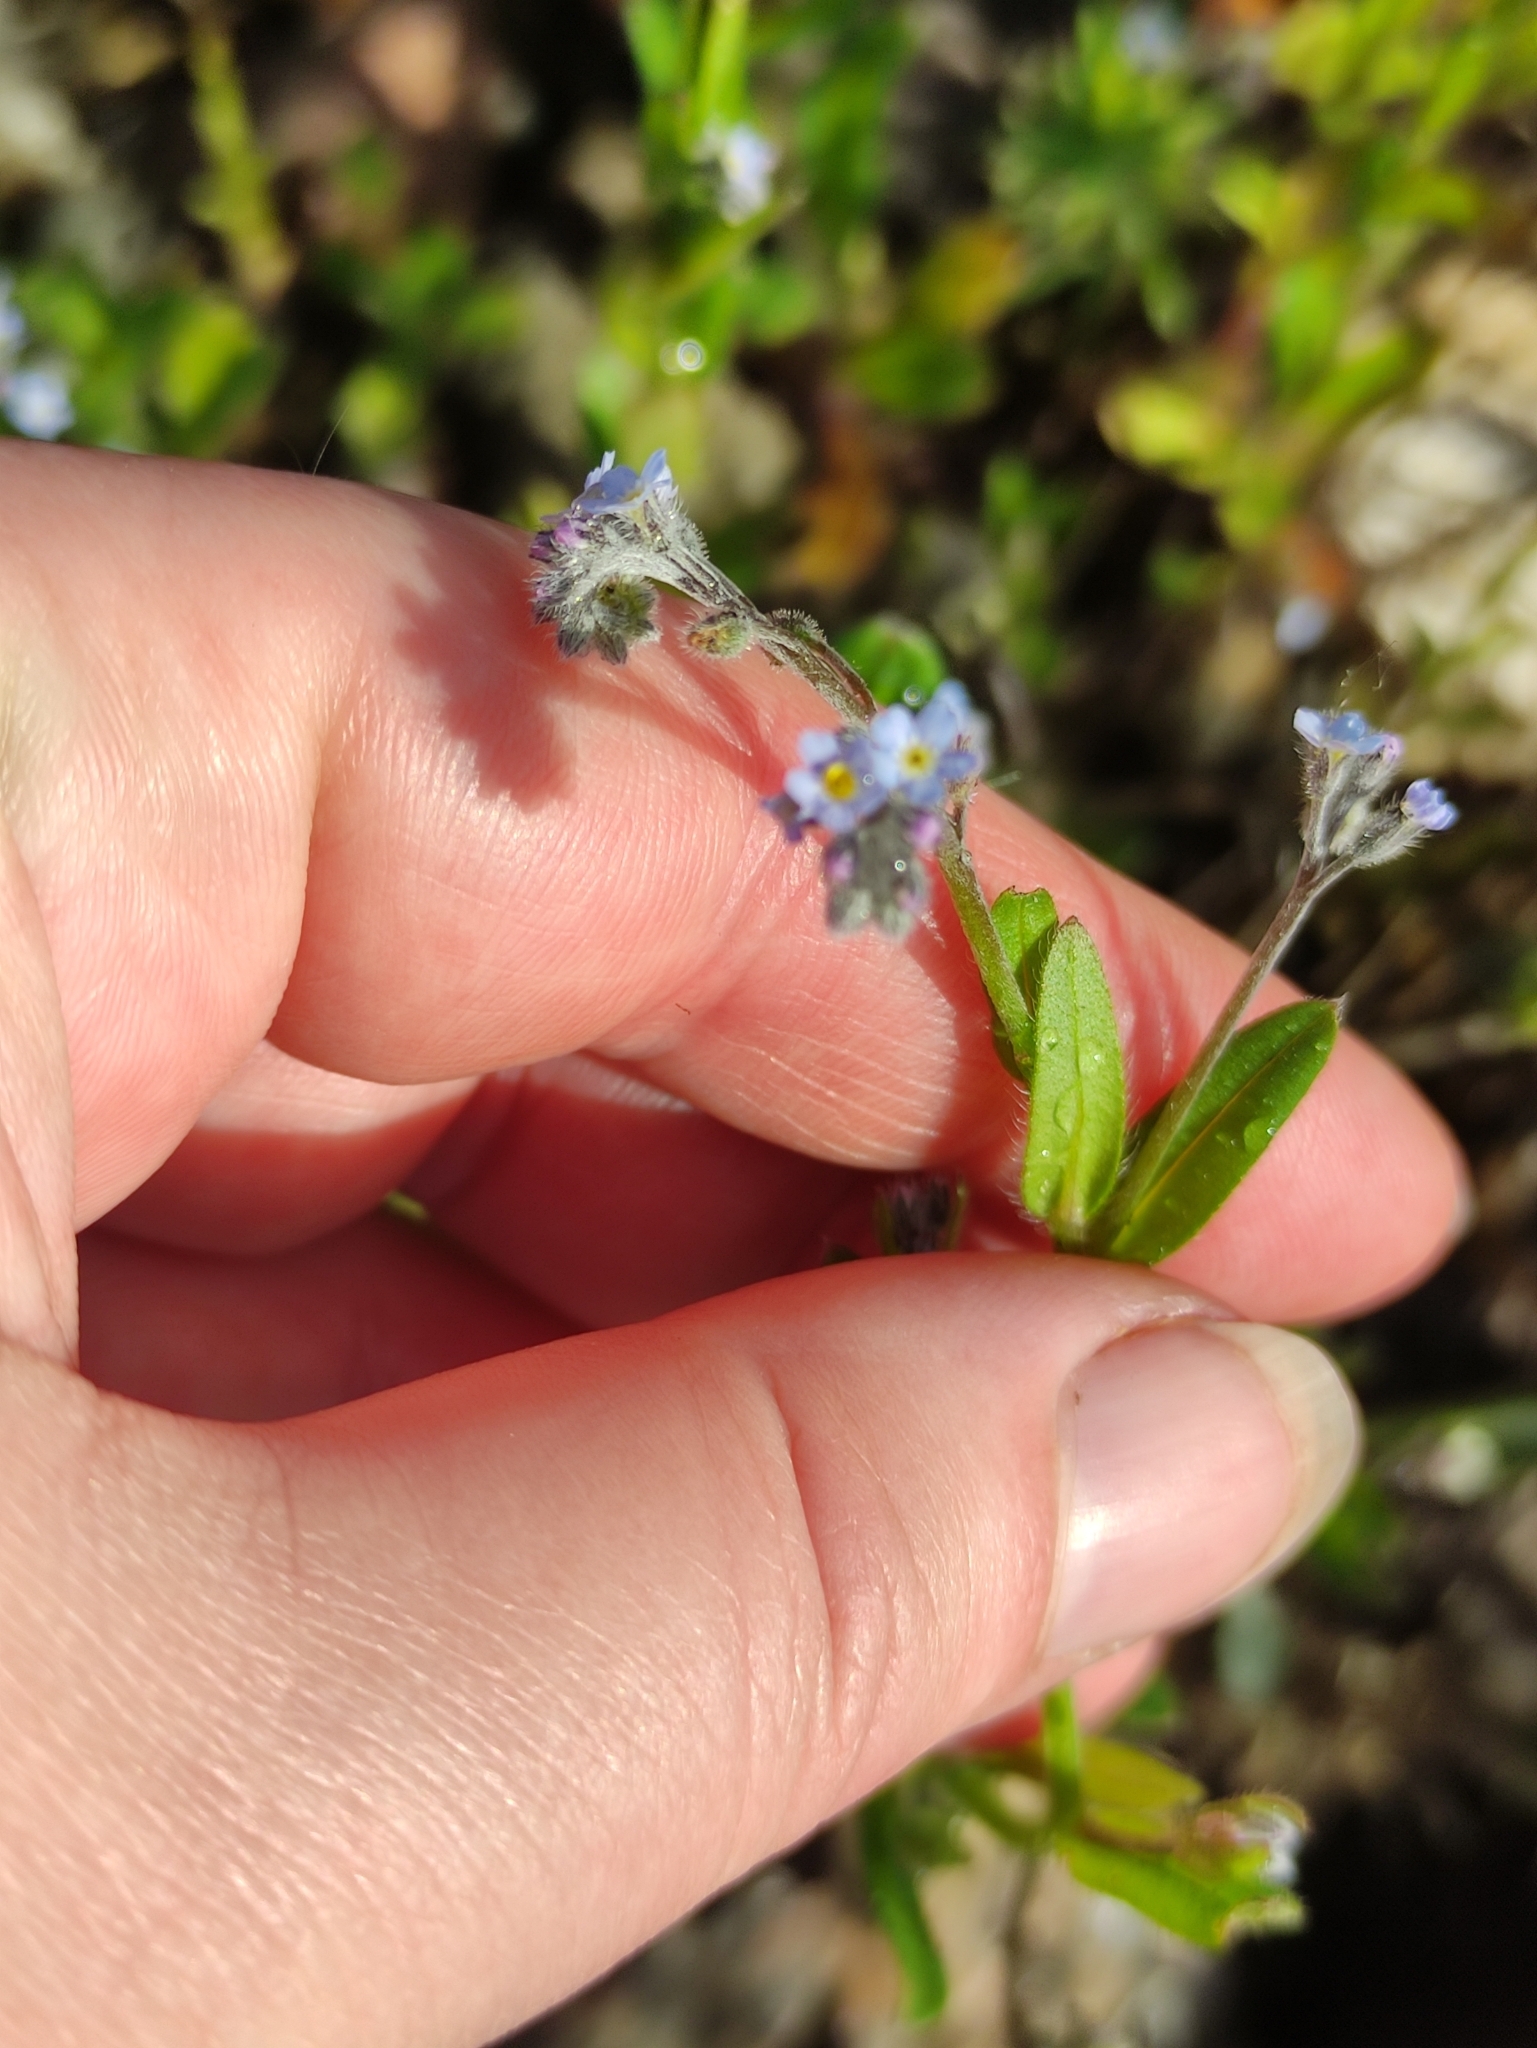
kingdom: Plantae
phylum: Tracheophyta
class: Magnoliopsida
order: Boraginales
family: Boraginaceae
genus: Myosotis
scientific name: Myosotis arvensis
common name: Field forget-me-not
